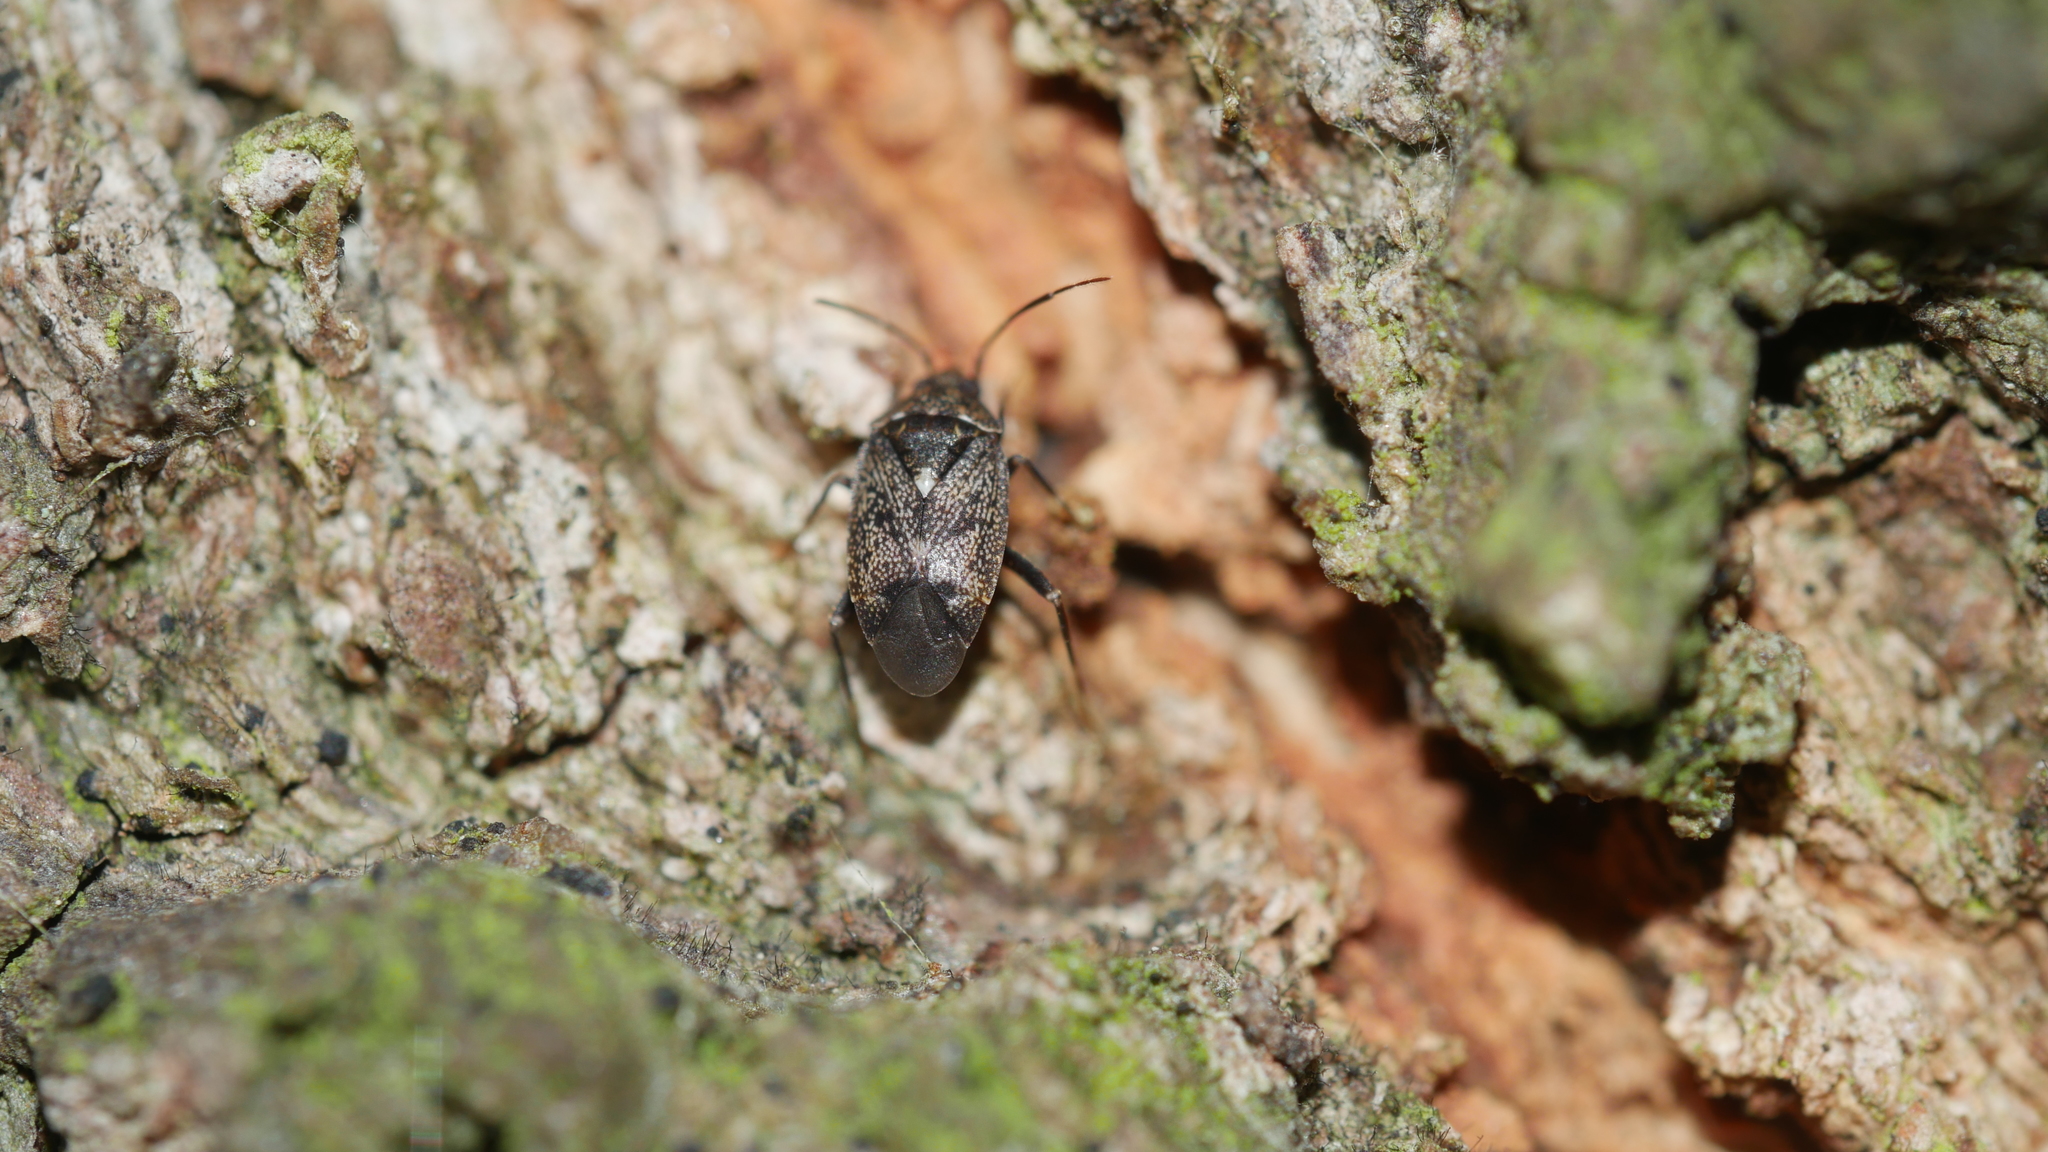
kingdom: Animalia
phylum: Arthropoda
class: Insecta
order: Hemiptera
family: Miridae
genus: Peritropis
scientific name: Peritropis
